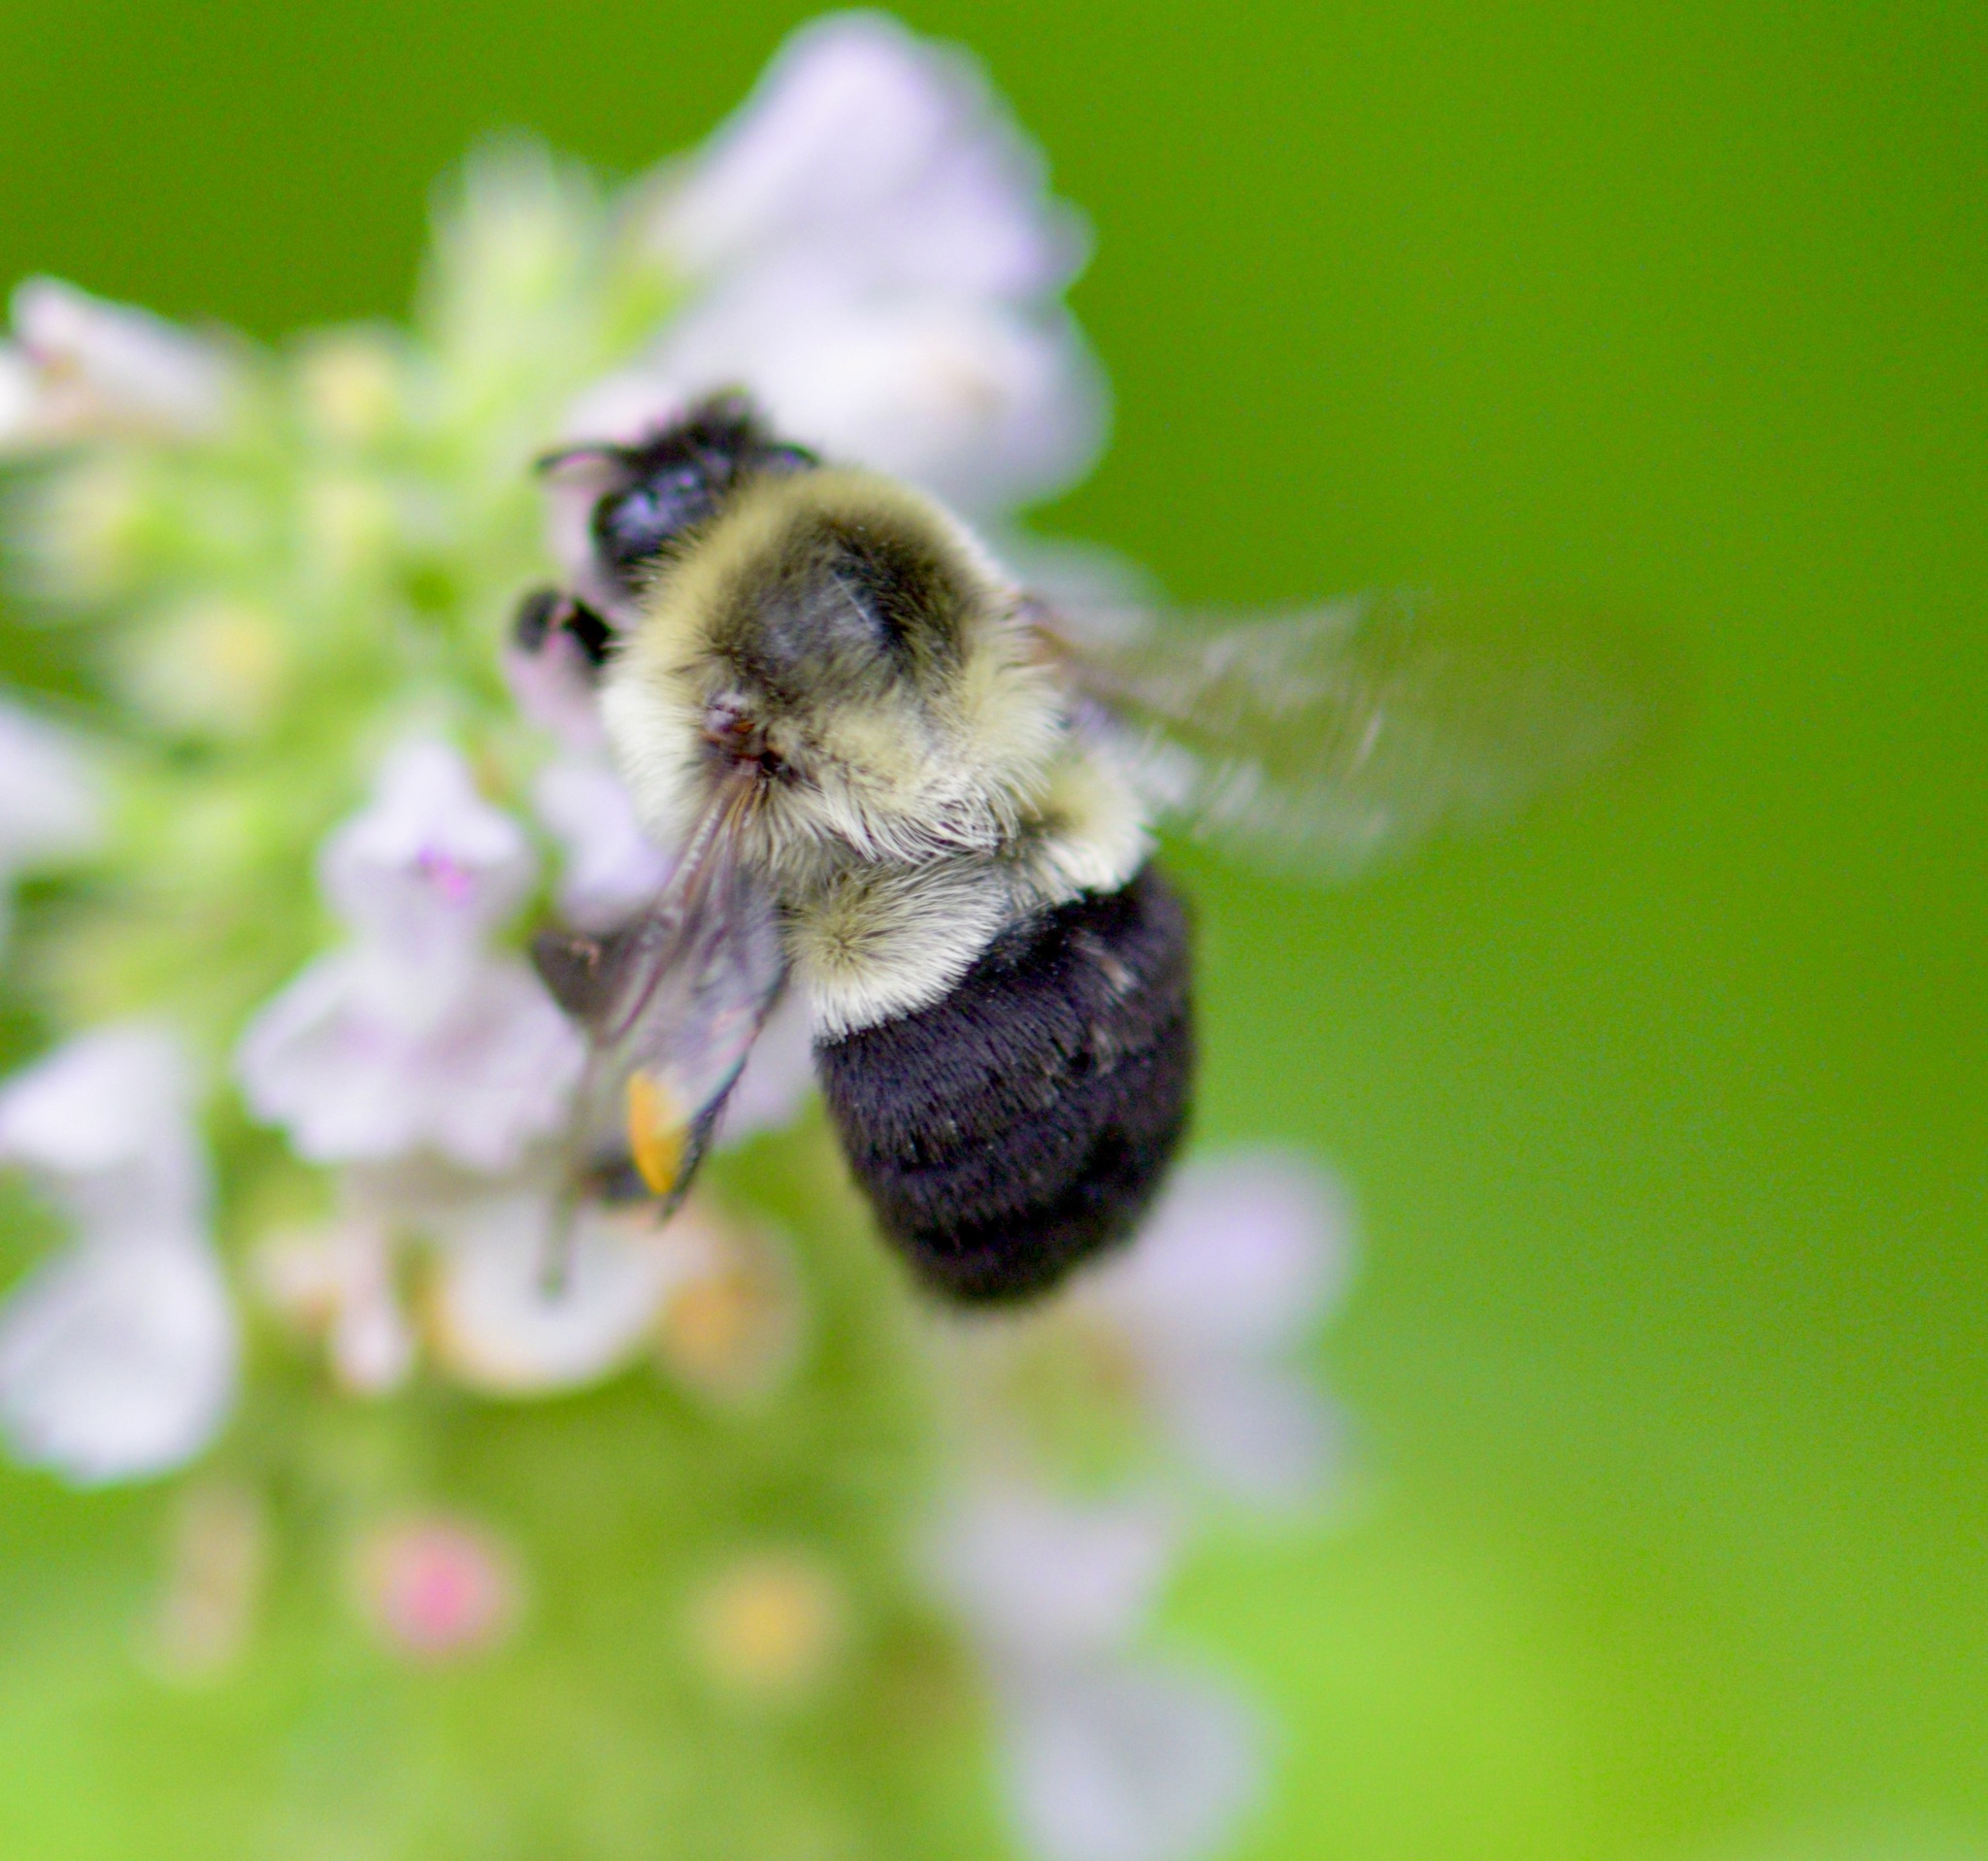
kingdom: Animalia
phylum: Arthropoda
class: Insecta
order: Hymenoptera
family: Apidae
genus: Bombus
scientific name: Bombus impatiens
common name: Common eastern bumble bee
